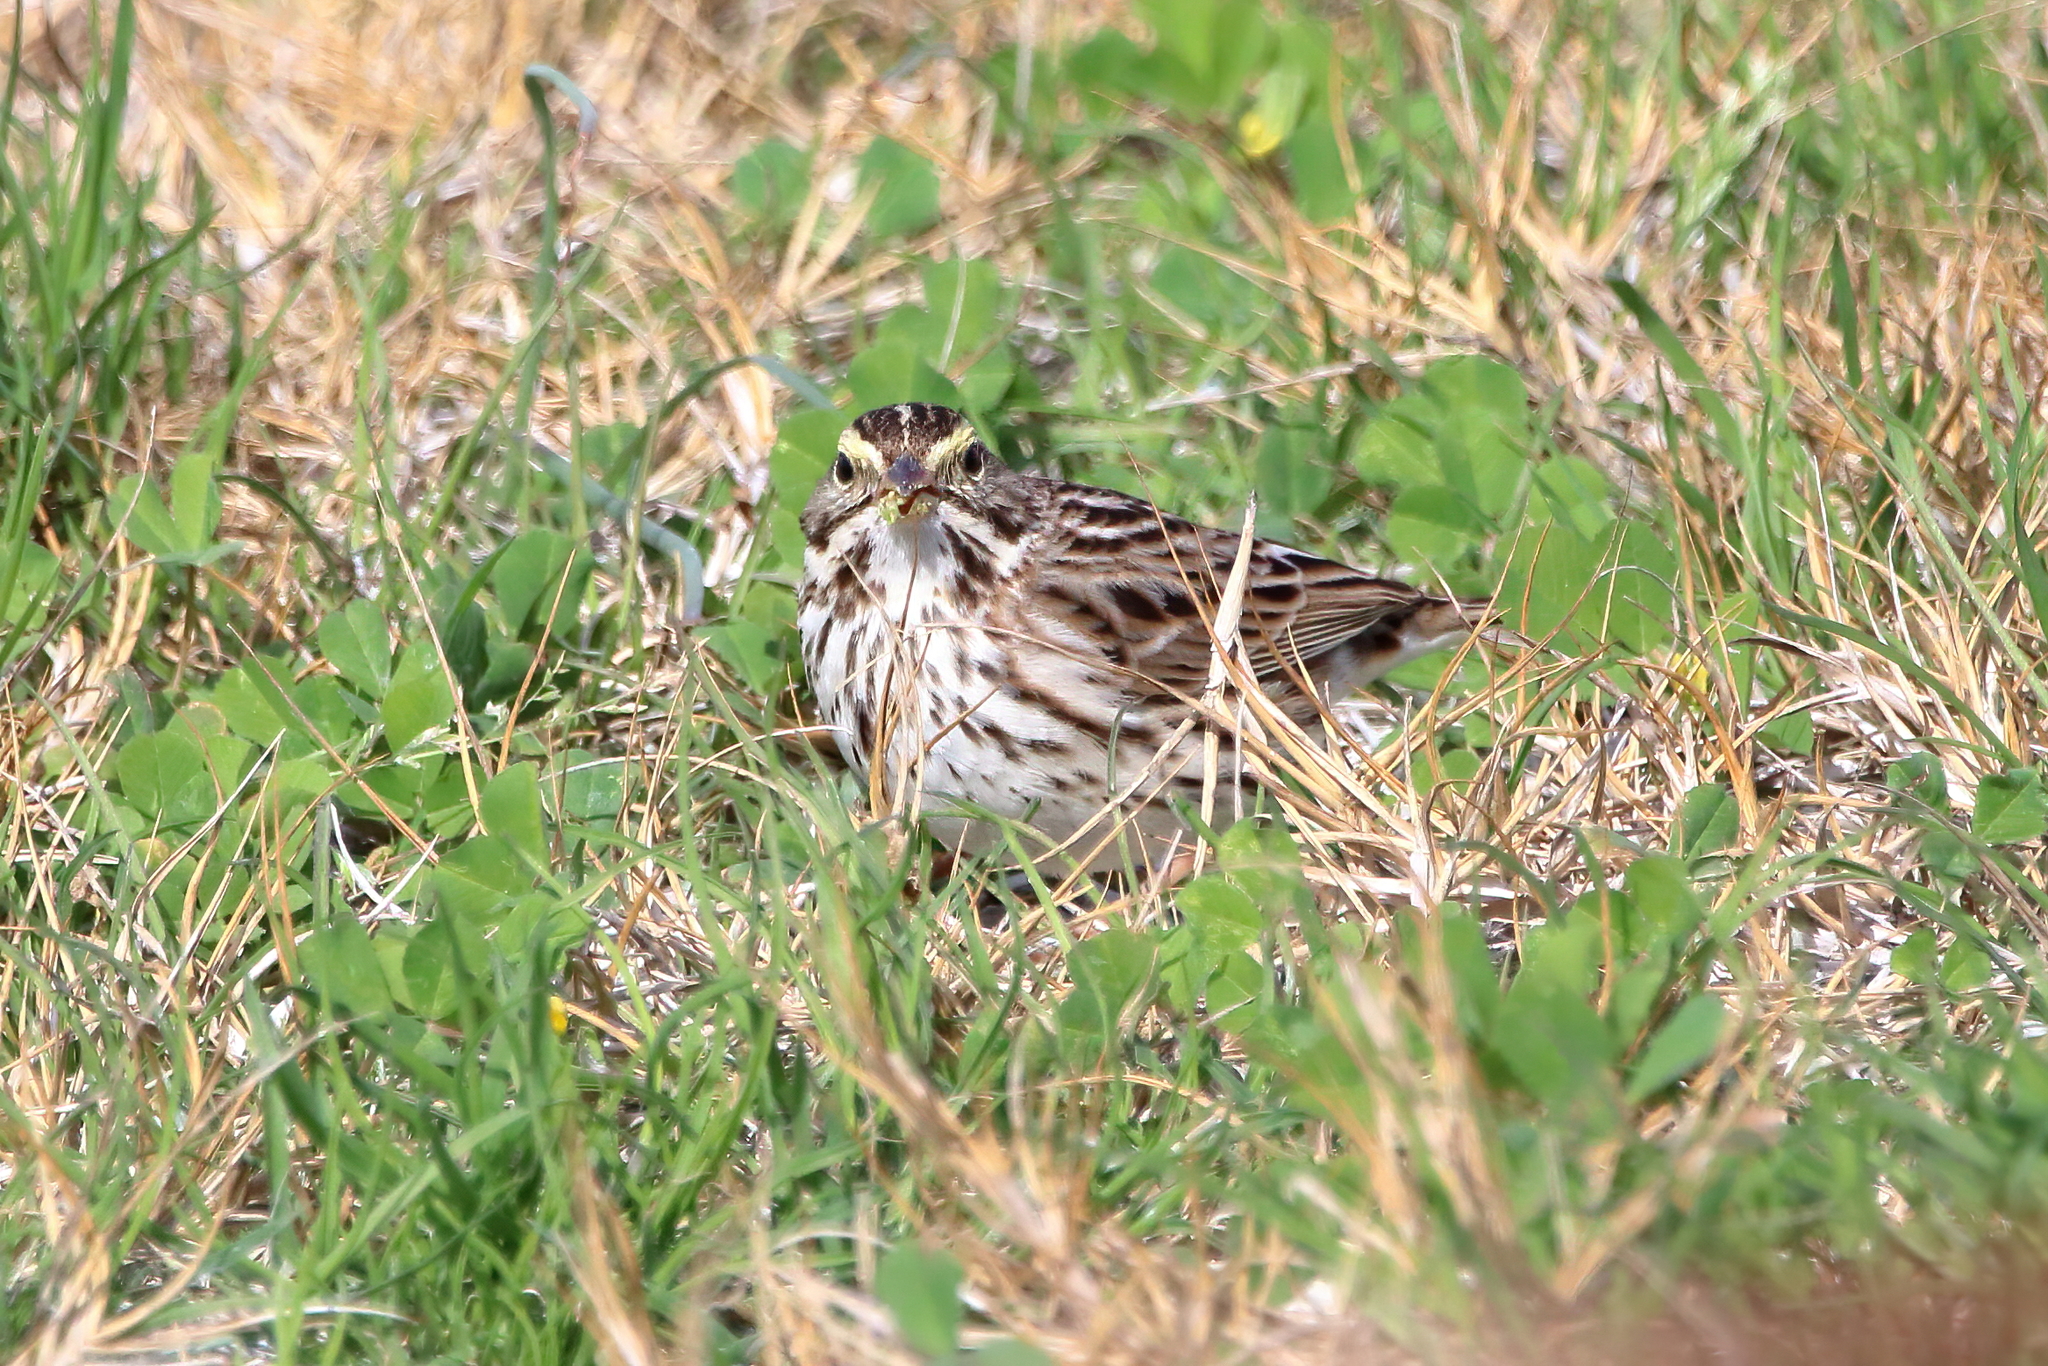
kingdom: Animalia
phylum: Chordata
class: Aves
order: Passeriformes
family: Passerellidae
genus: Passerculus
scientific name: Passerculus sandwichensis
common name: Savannah sparrow
